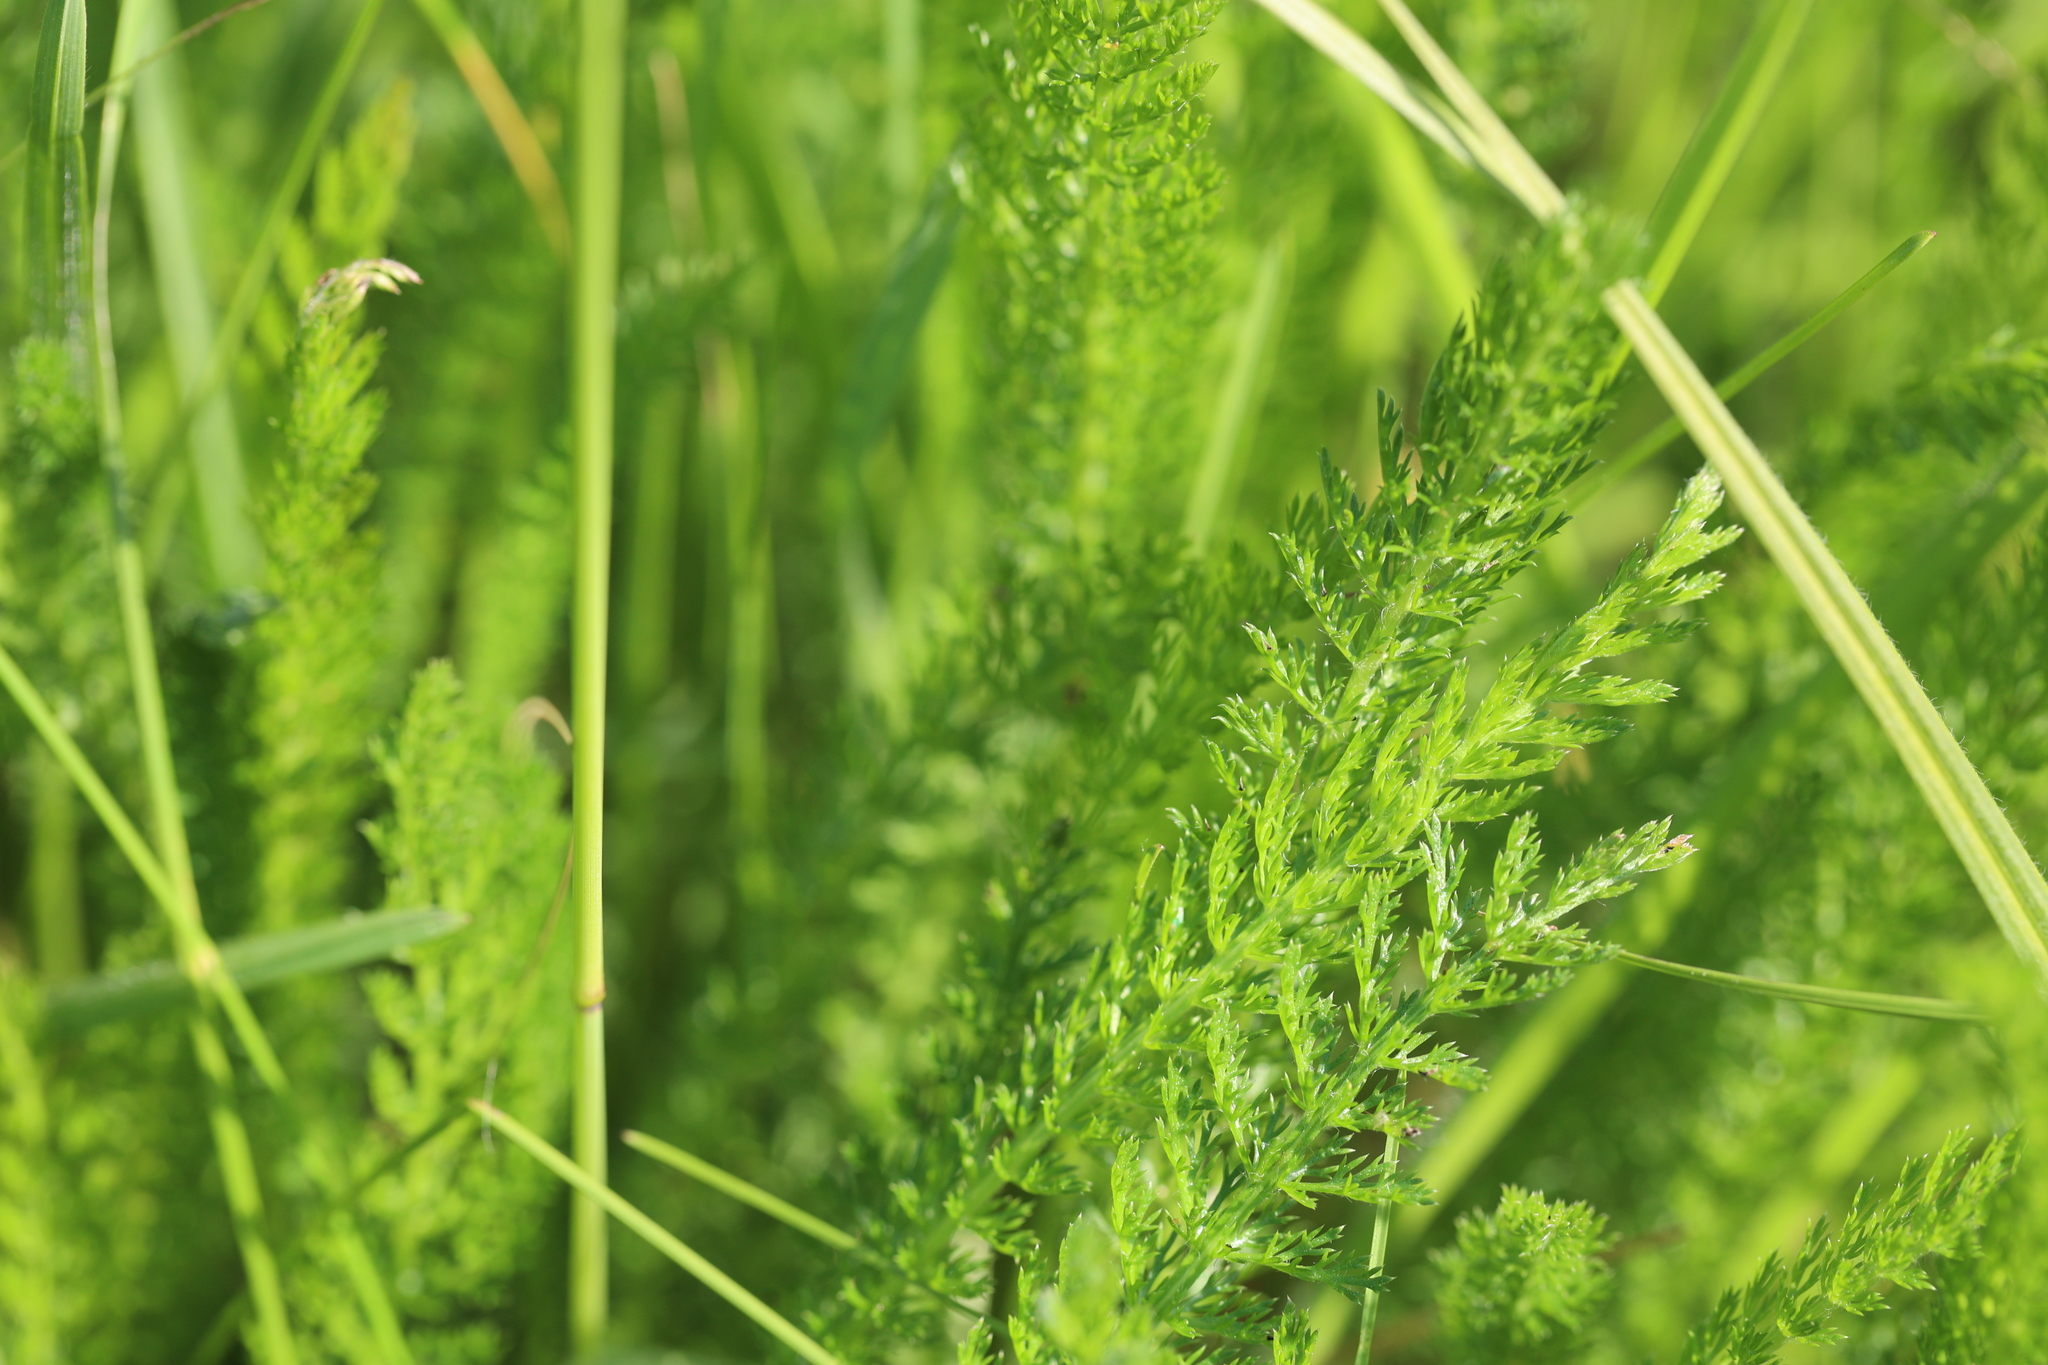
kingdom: Plantae
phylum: Tracheophyta
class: Magnoliopsida
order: Asterales
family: Asteraceae
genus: Achillea
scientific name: Achillea millefolium
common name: Yarrow
